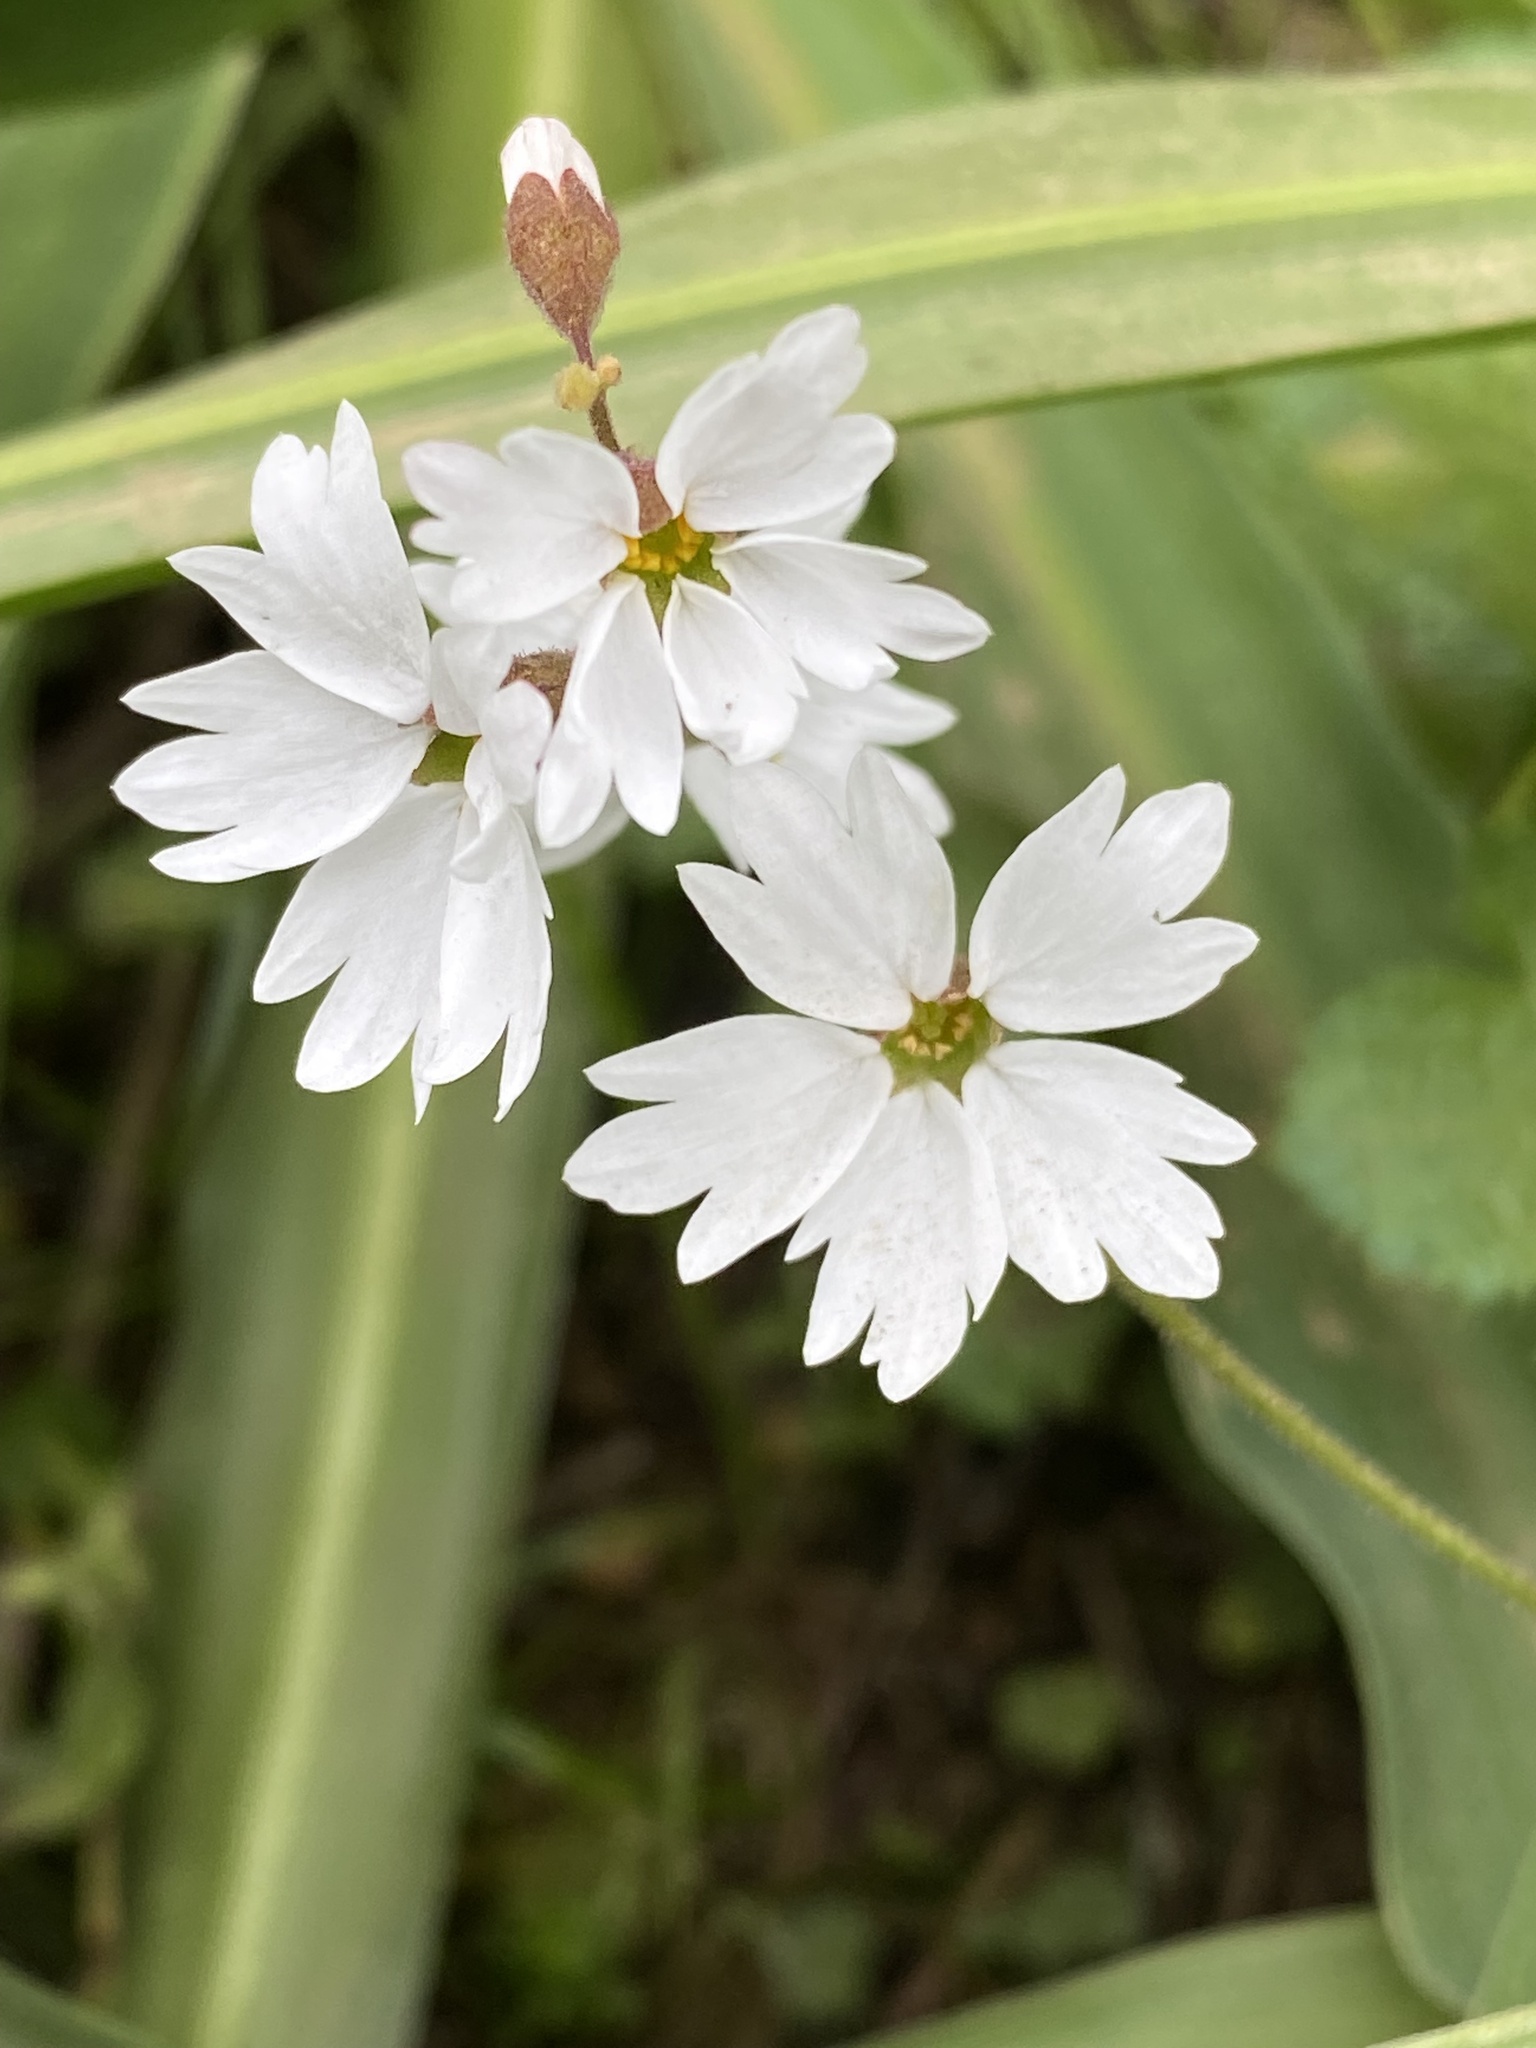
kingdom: Plantae
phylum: Tracheophyta
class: Magnoliopsida
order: Saxifragales
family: Saxifragaceae
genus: Lithophragma
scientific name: Lithophragma affine
